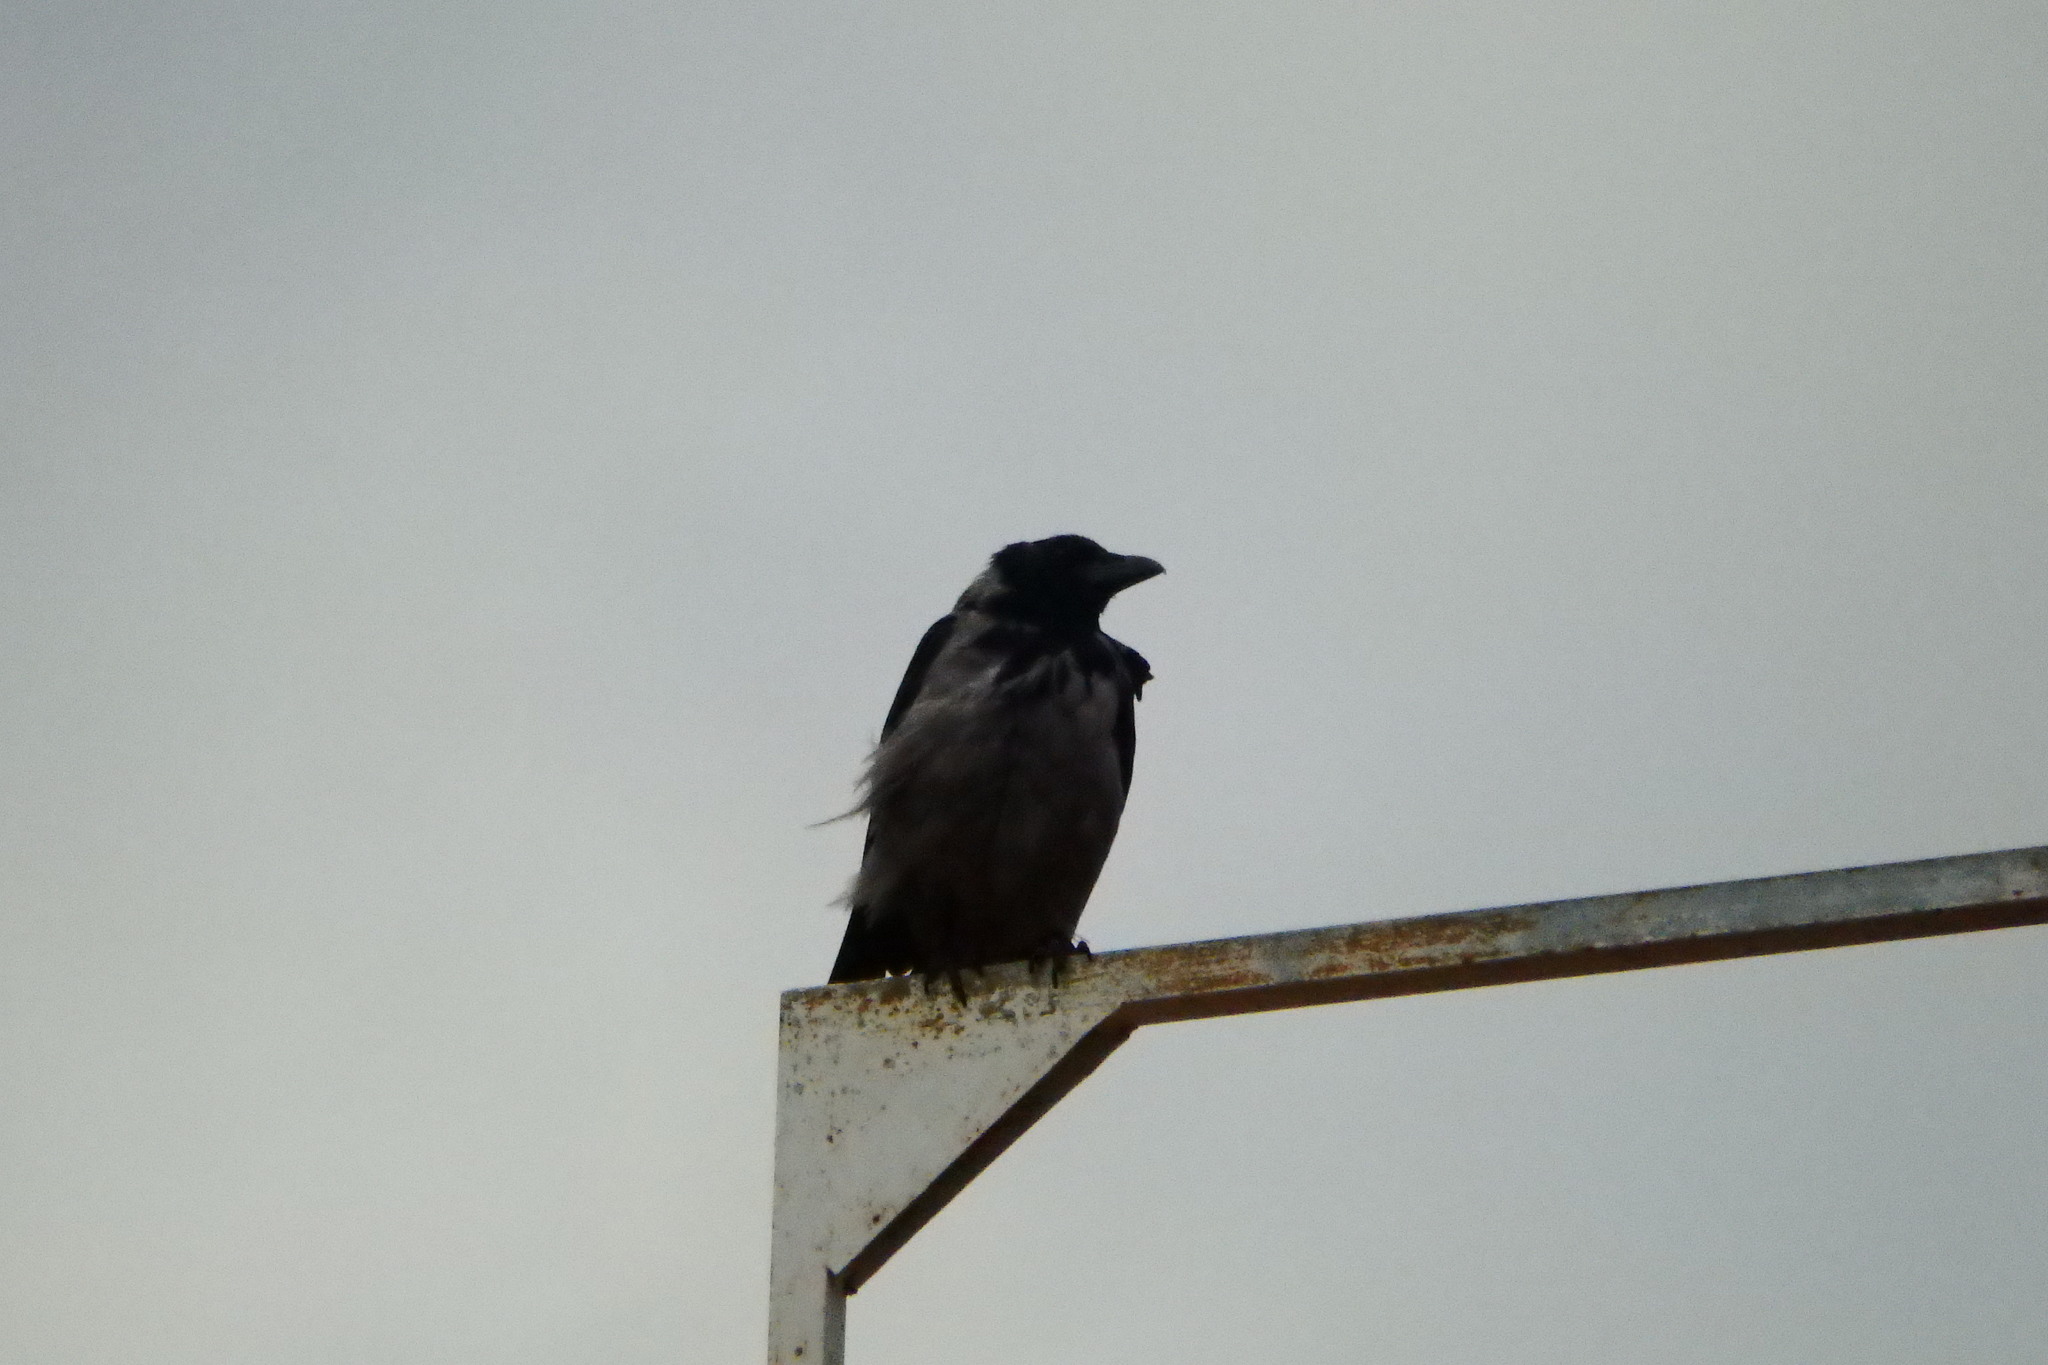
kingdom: Animalia
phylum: Chordata
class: Aves
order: Passeriformes
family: Corvidae
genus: Corvus
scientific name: Corvus cornix
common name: Hooded crow
